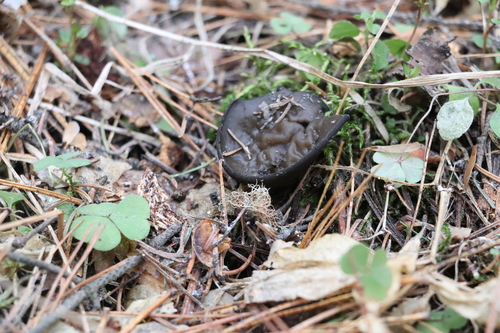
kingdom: Fungi
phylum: Ascomycota
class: Pezizomycetes
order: Pezizales
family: Sarcosomataceae
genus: Pseudoplectania
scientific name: Pseudoplectania melaena
